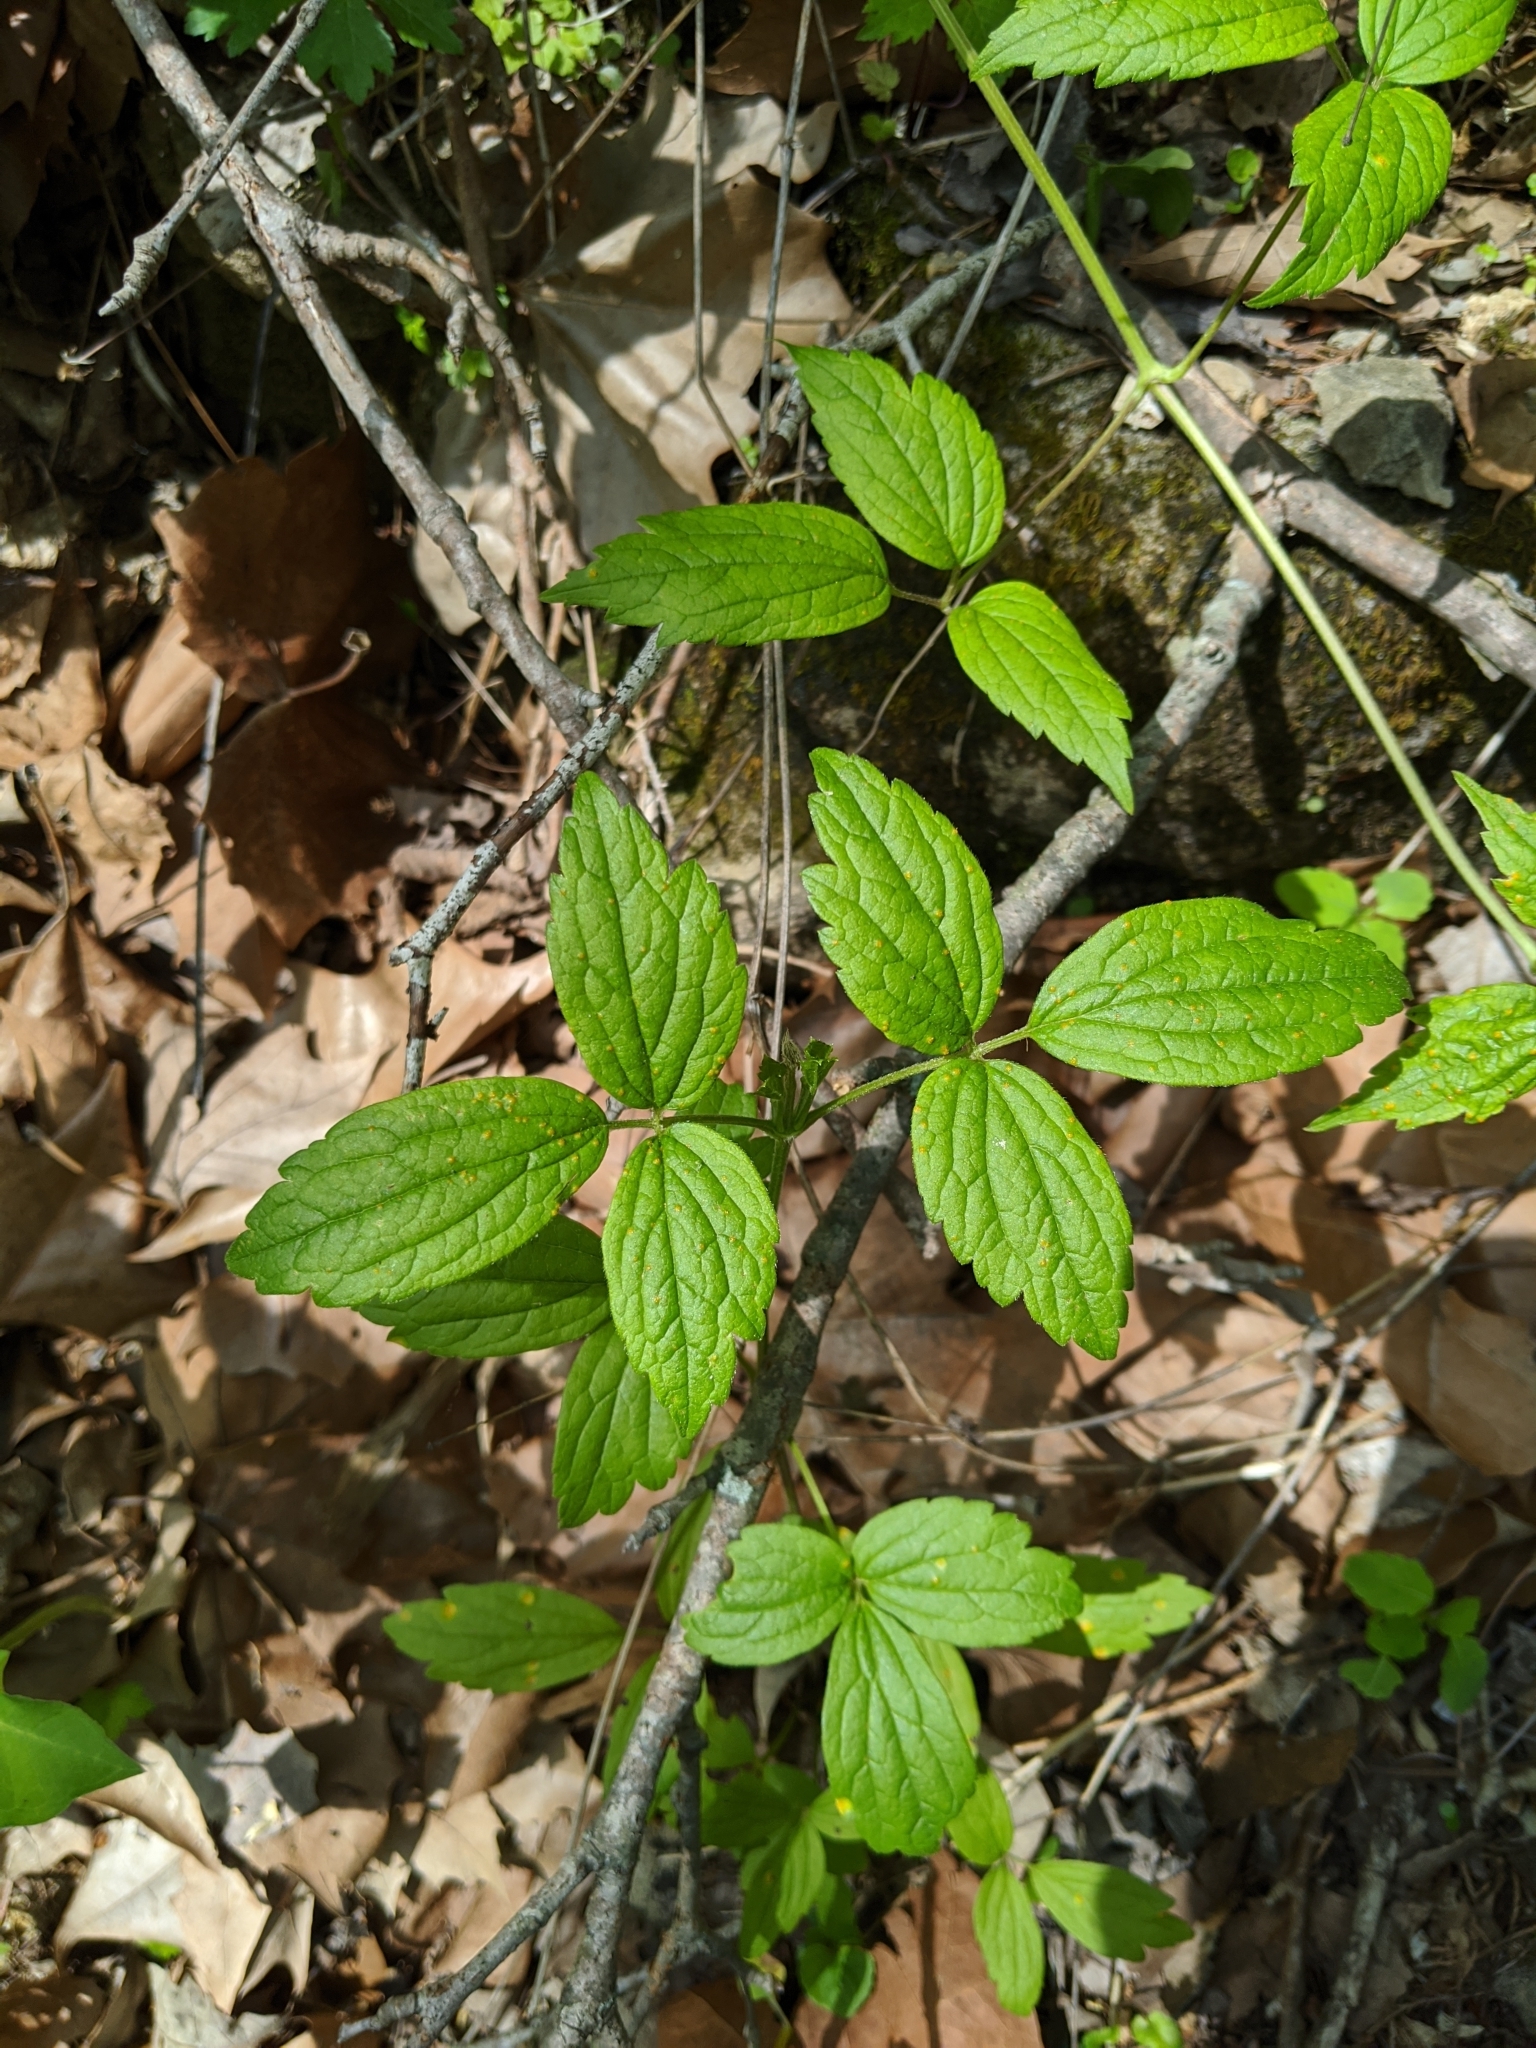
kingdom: Plantae
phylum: Tracheophyta
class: Magnoliopsida
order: Ranunculales
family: Ranunculaceae
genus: Clematis
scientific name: Clematis virginiana
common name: Virgin's-bower
